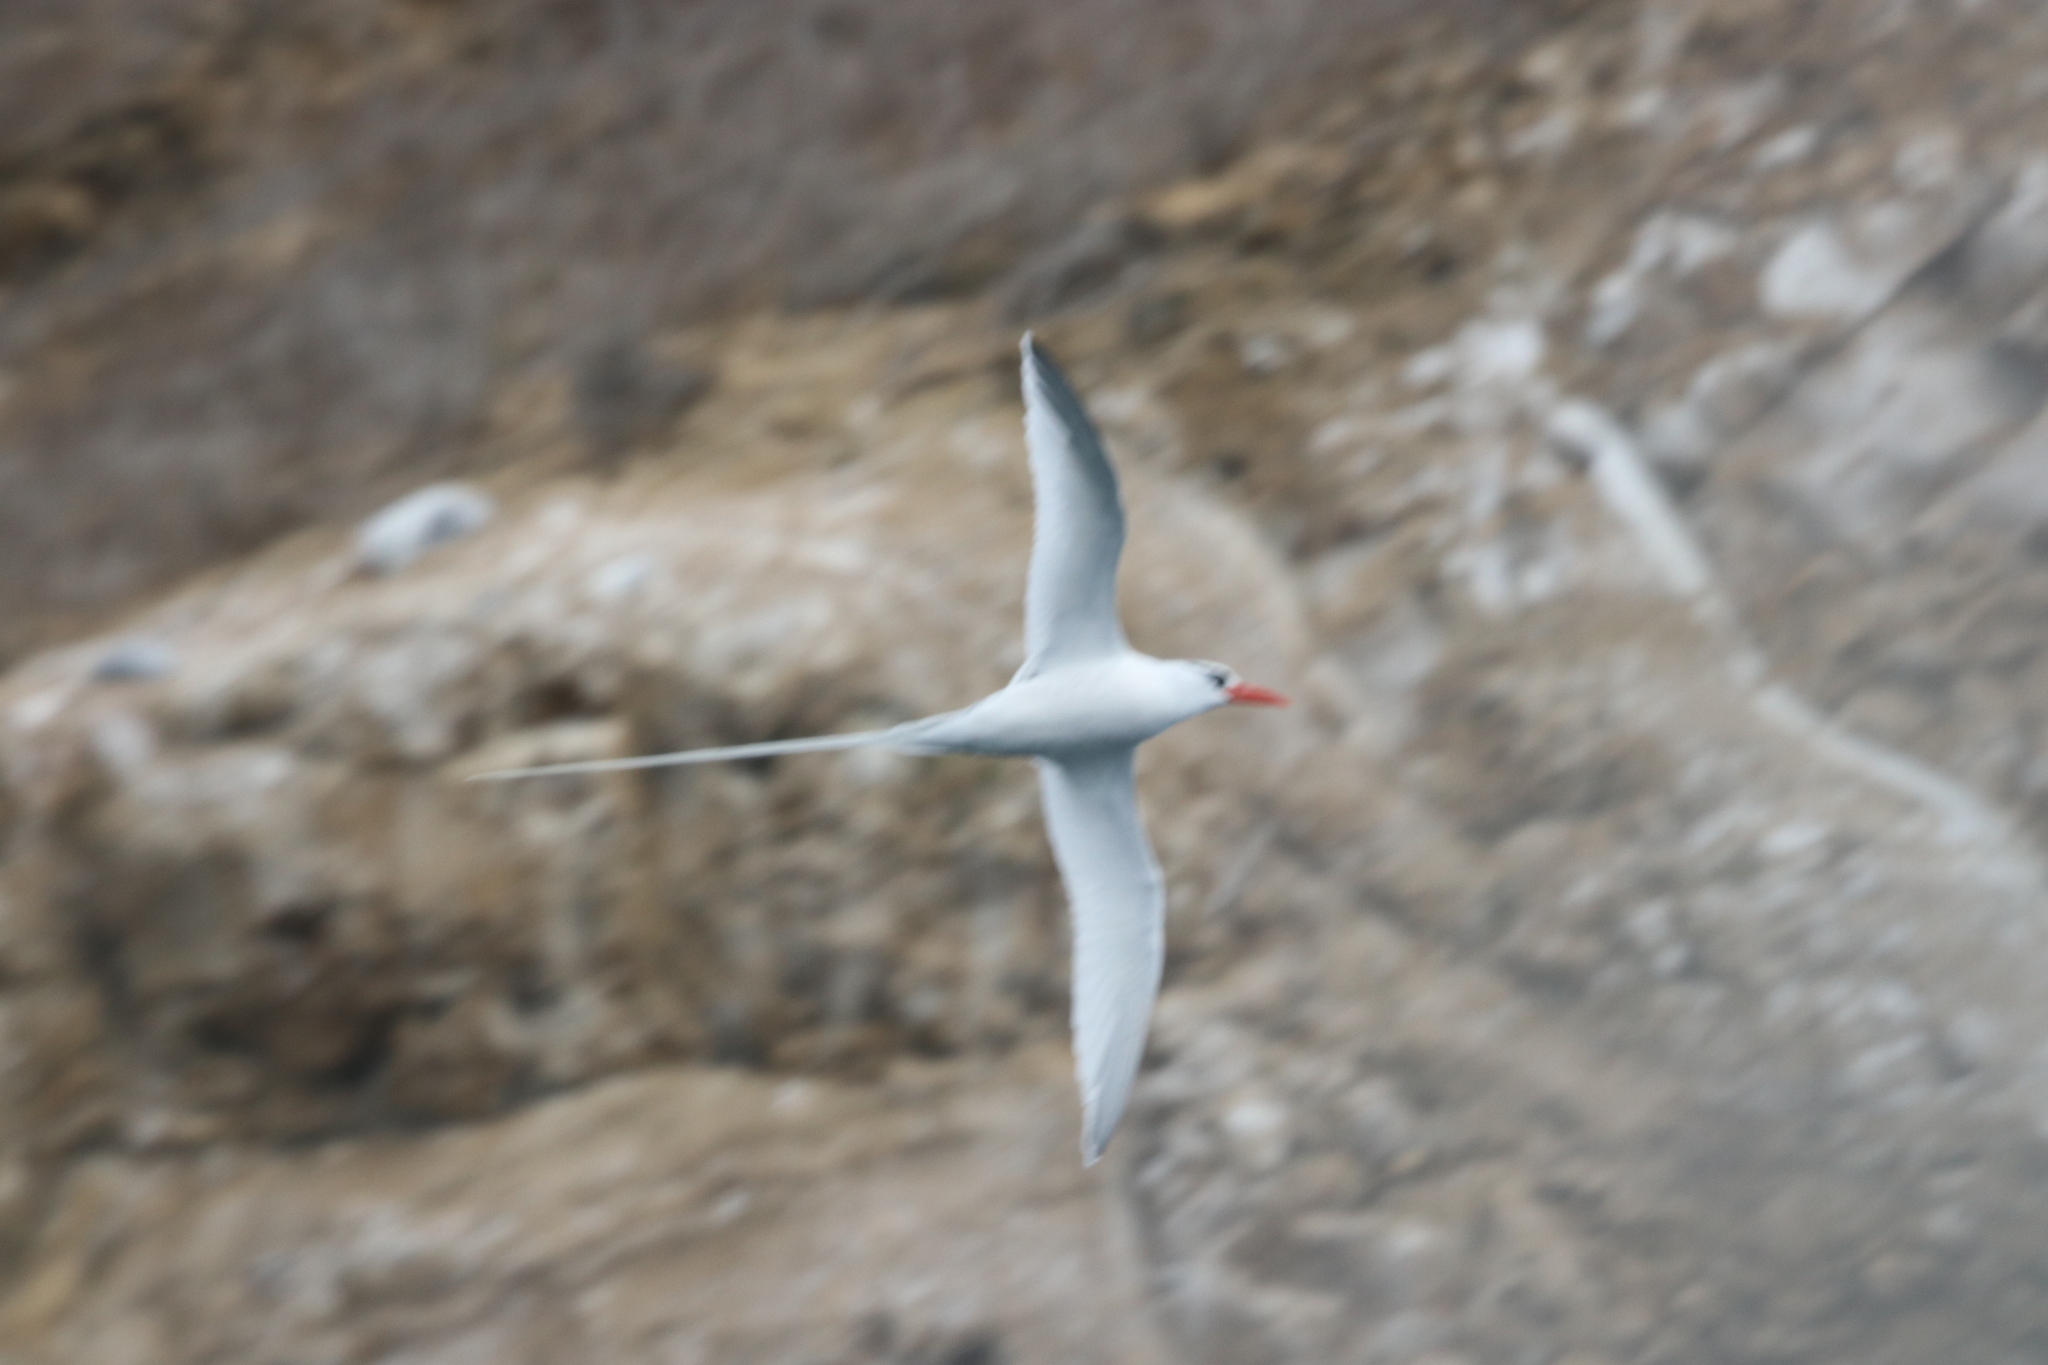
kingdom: Animalia
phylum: Chordata
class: Aves
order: Phaethontiformes
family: Phaethontidae
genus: Phaethon
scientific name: Phaethon aethereus
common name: Red-billed tropicbird
